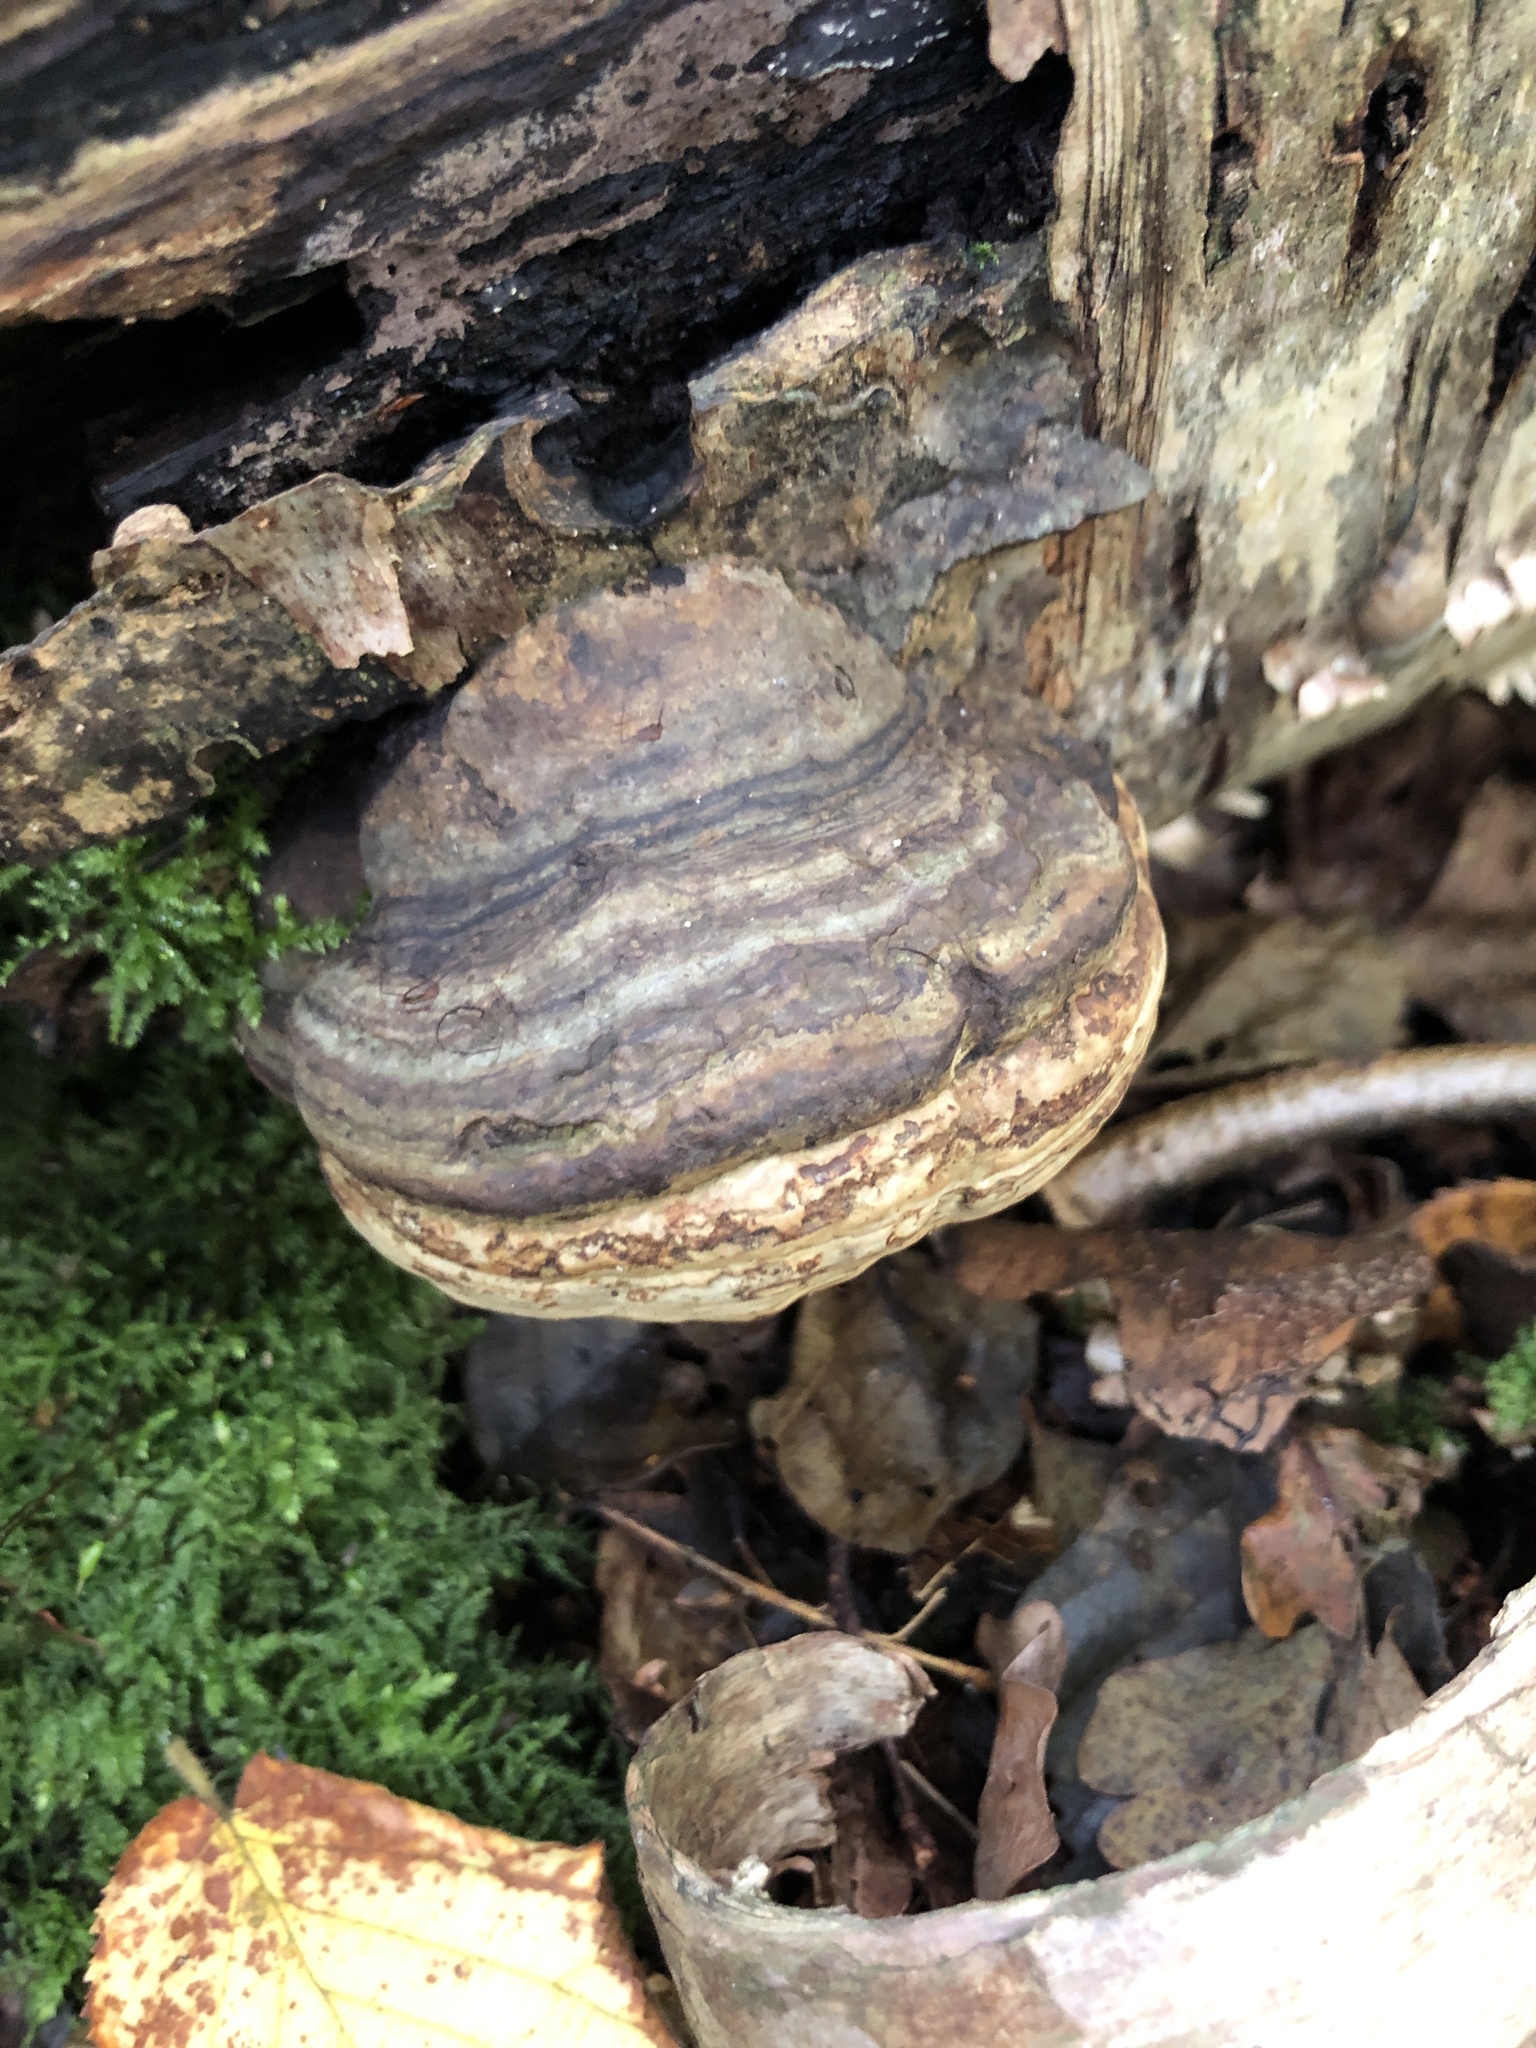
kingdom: Fungi
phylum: Basidiomycota
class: Agaricomycetes
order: Polyporales
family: Polyporaceae
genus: Fomes
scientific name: Fomes fomentarius
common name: Hoof fungus
